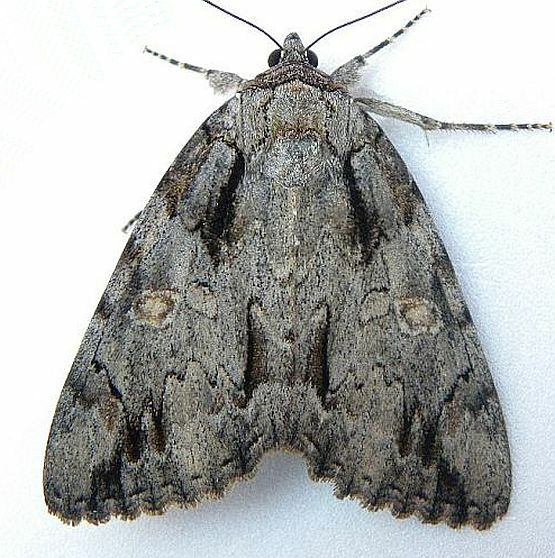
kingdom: Animalia
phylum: Arthropoda
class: Insecta
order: Lepidoptera
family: Erebidae
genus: Catocala
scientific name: Catocala neogama
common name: Bride underwing
